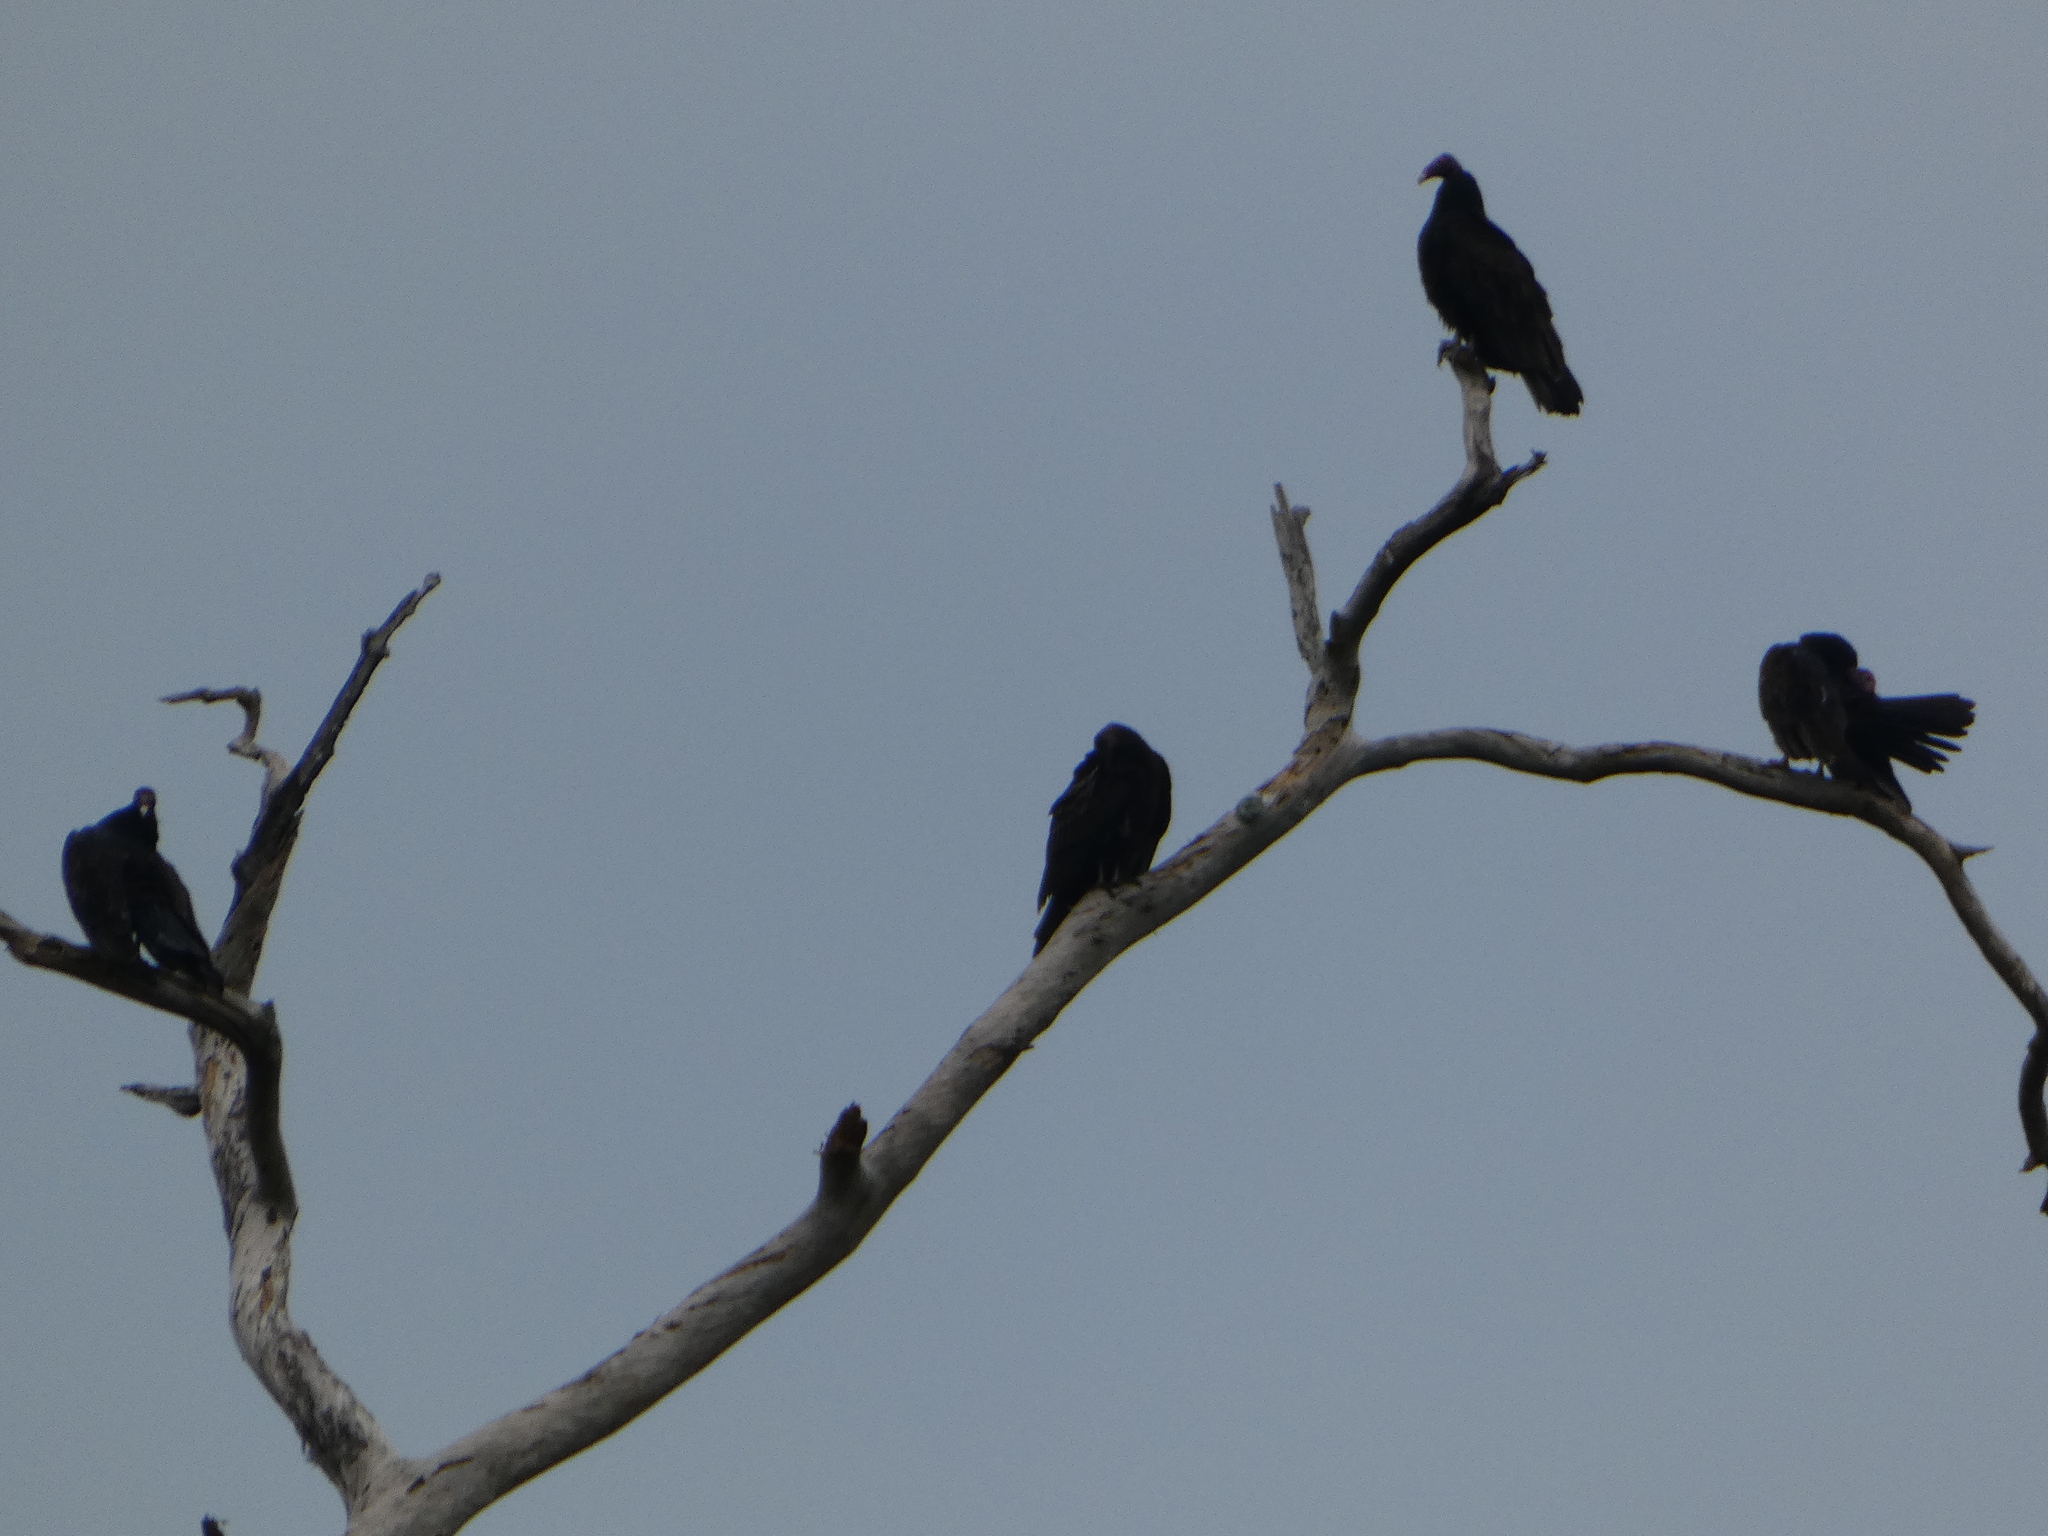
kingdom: Animalia
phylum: Chordata
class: Aves
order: Accipitriformes
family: Cathartidae
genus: Cathartes
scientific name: Cathartes aura
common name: Turkey vulture
